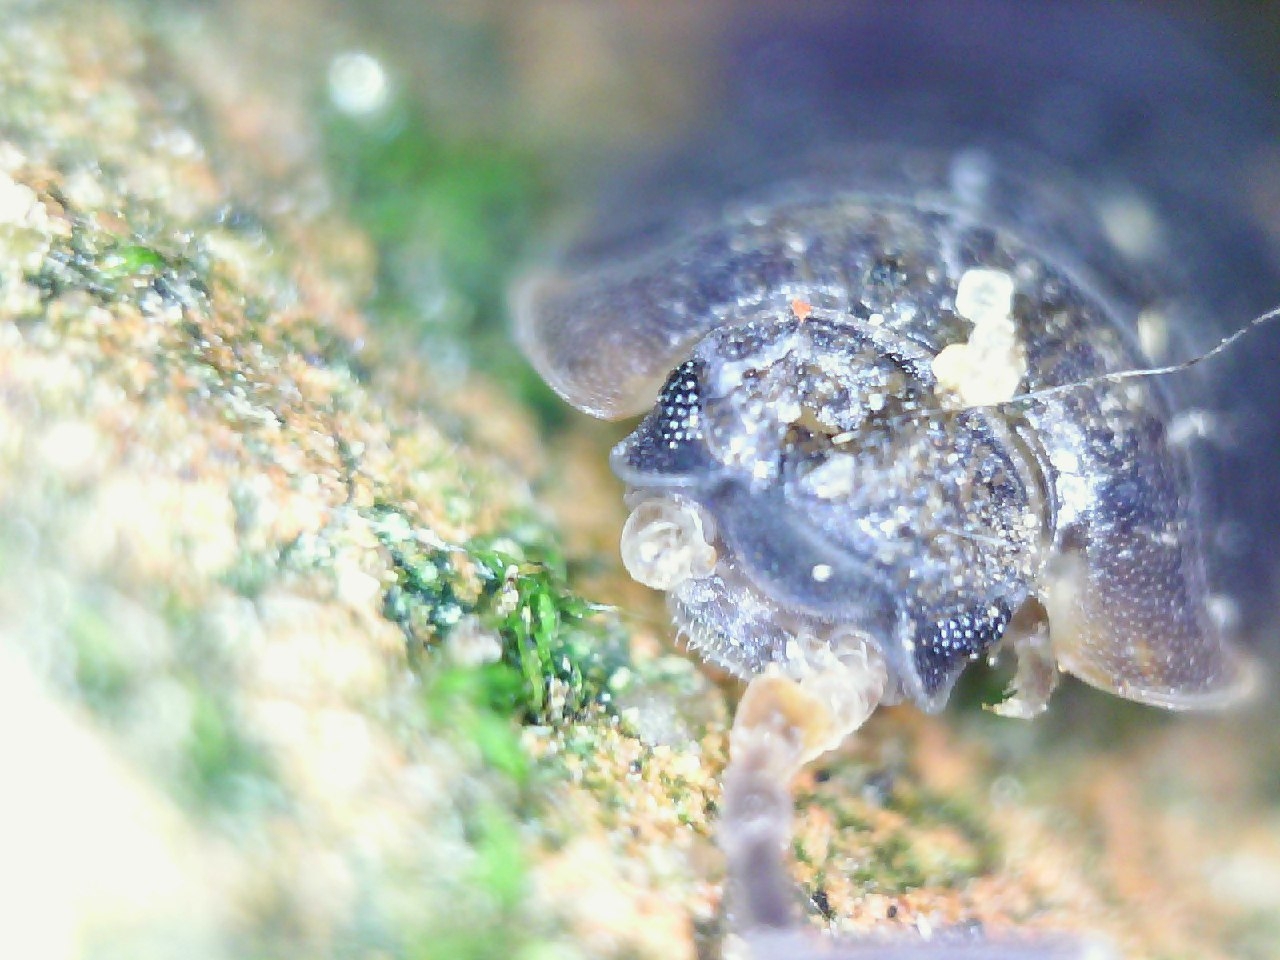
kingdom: Animalia
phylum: Arthropoda
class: Malacostraca
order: Isopoda
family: Porcellionidae
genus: Porcellio
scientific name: Porcellio scaber
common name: Common rough woodlouse
